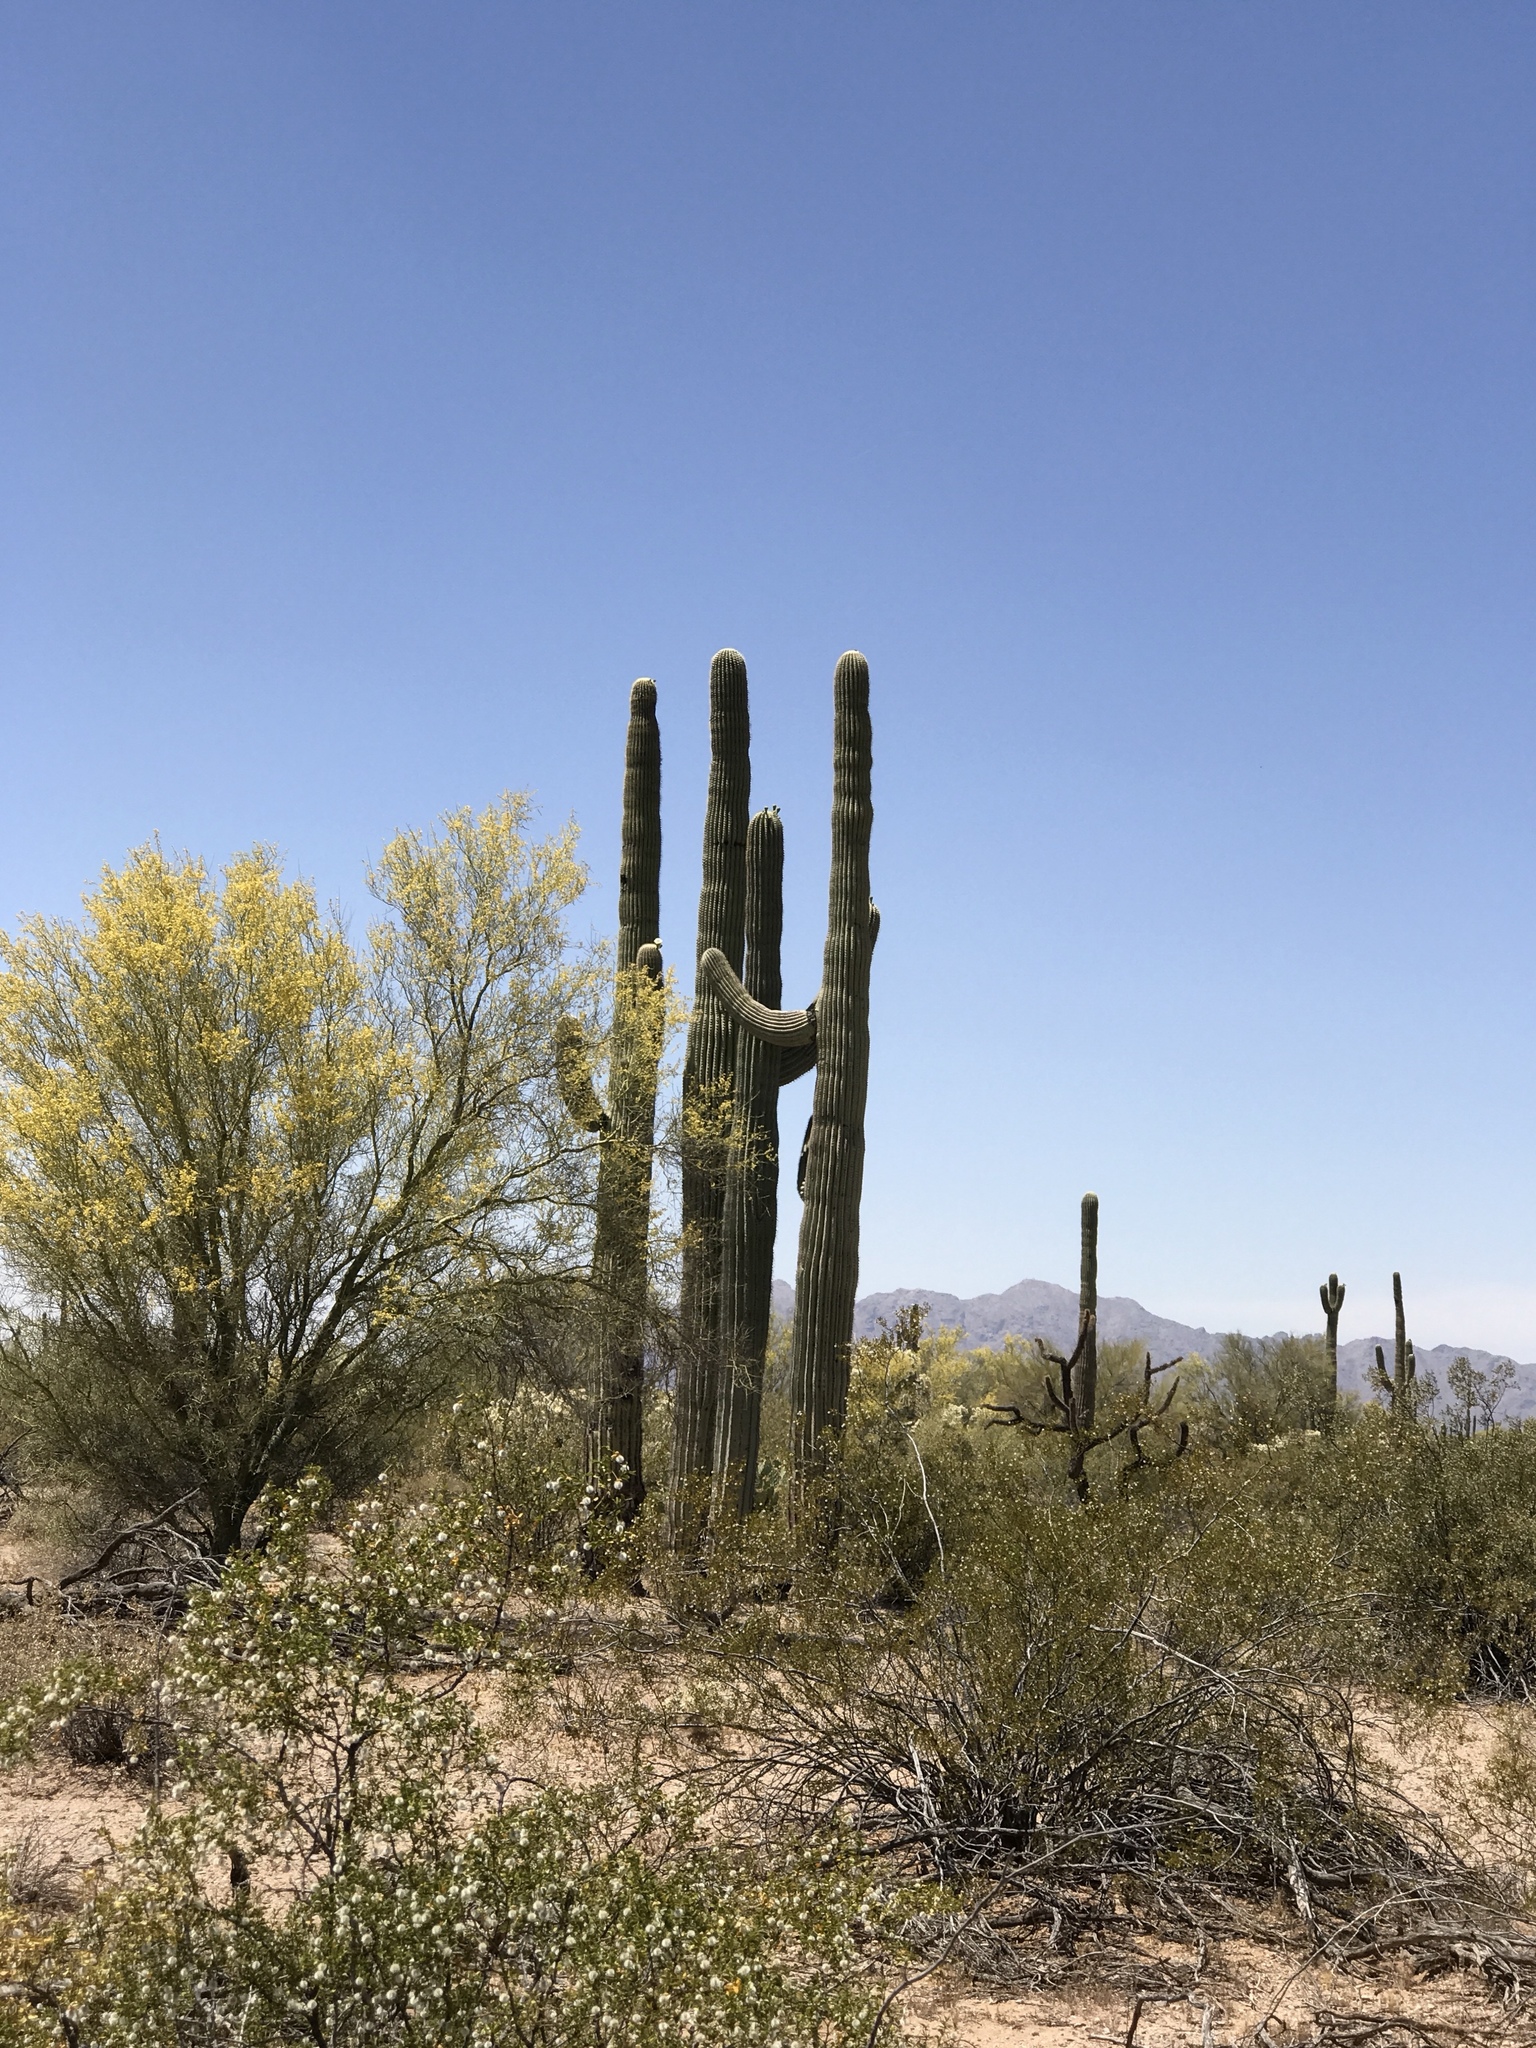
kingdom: Plantae
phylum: Tracheophyta
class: Magnoliopsida
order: Caryophyllales
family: Cactaceae
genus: Carnegiea
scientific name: Carnegiea gigantea
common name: Saguaro
